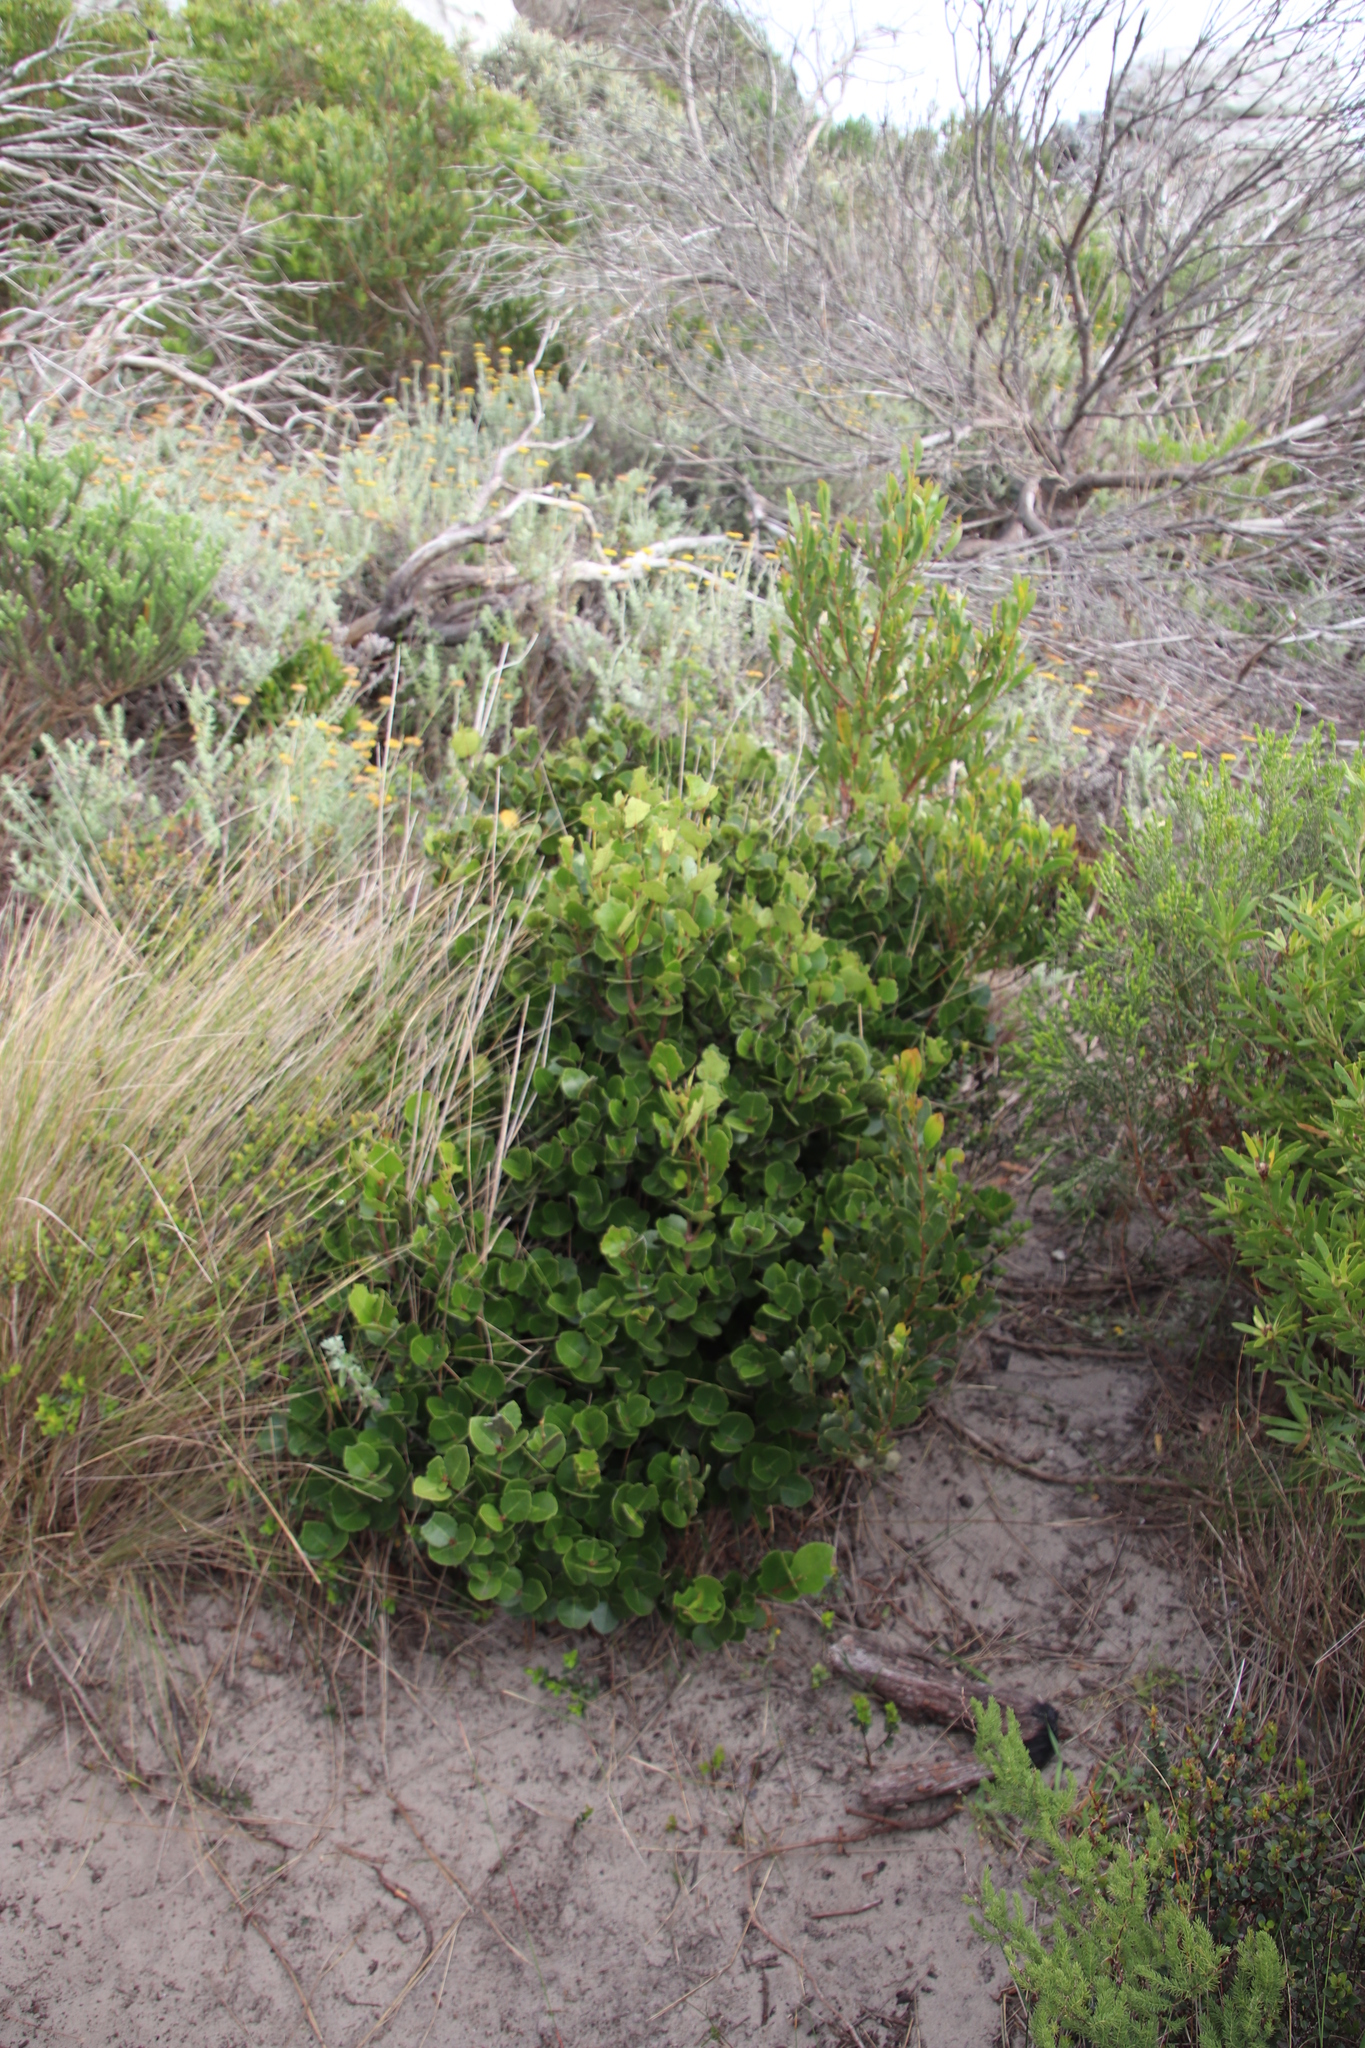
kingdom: Plantae
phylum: Tracheophyta
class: Magnoliopsida
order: Celastrales
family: Celastraceae
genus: Cassine
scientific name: Cassine peragua
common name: Cape saffron
